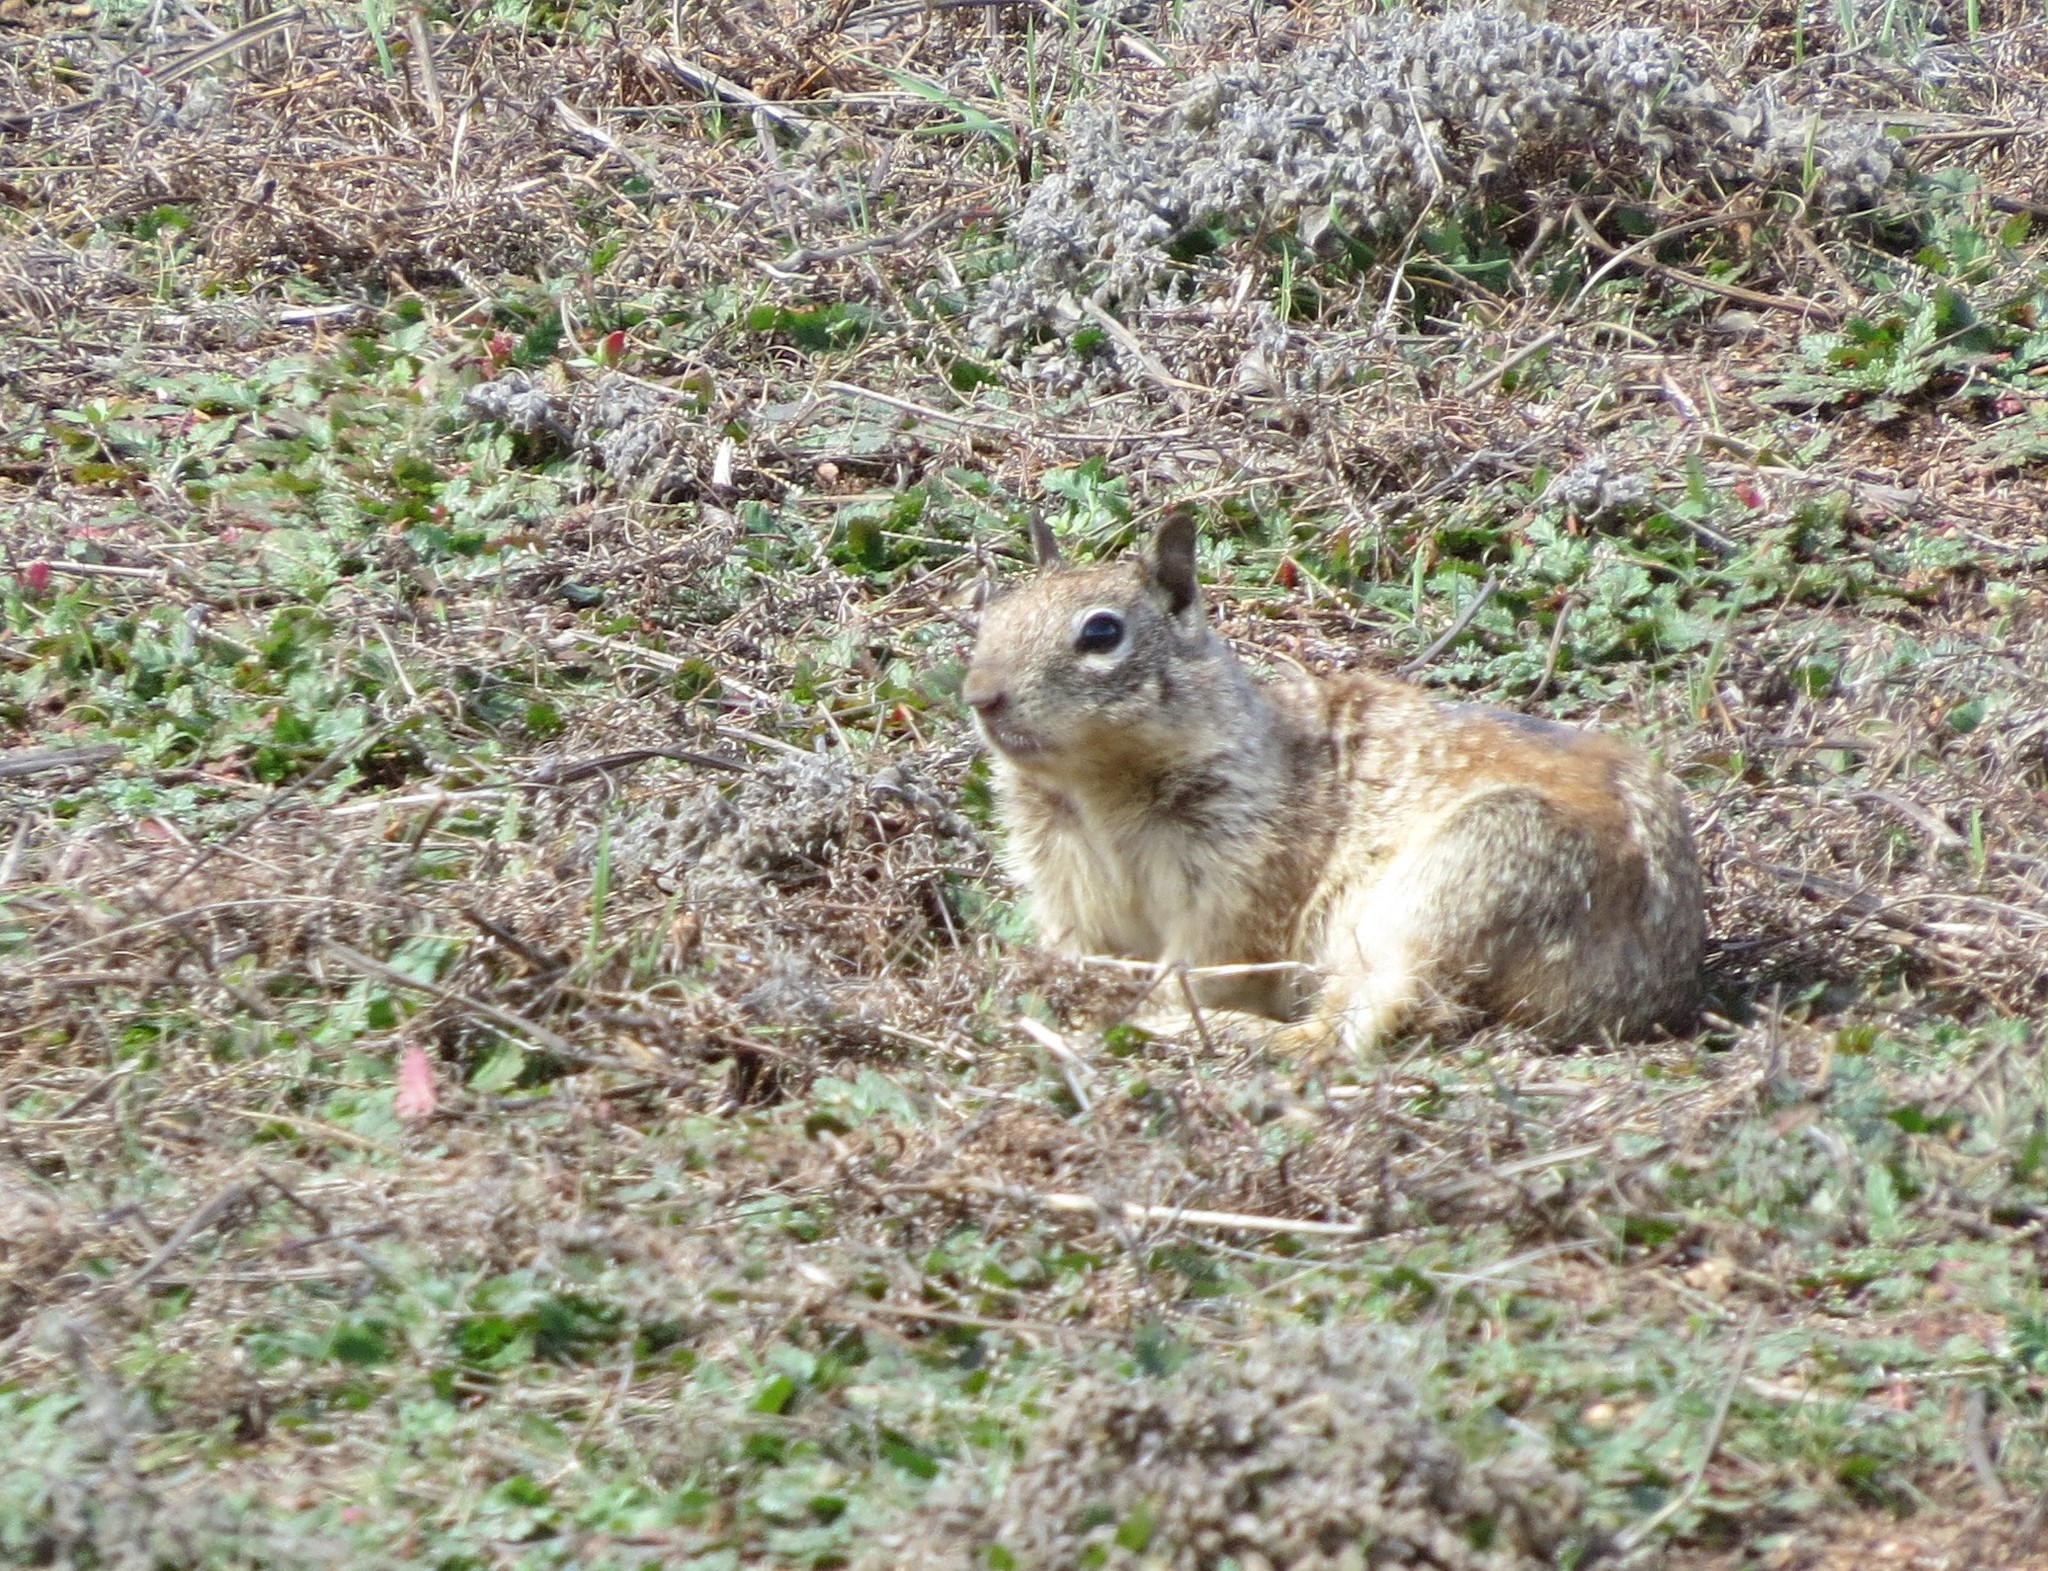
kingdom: Animalia
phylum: Chordata
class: Mammalia
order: Rodentia
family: Sciuridae
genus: Otospermophilus
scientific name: Otospermophilus beecheyi
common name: California ground squirrel
